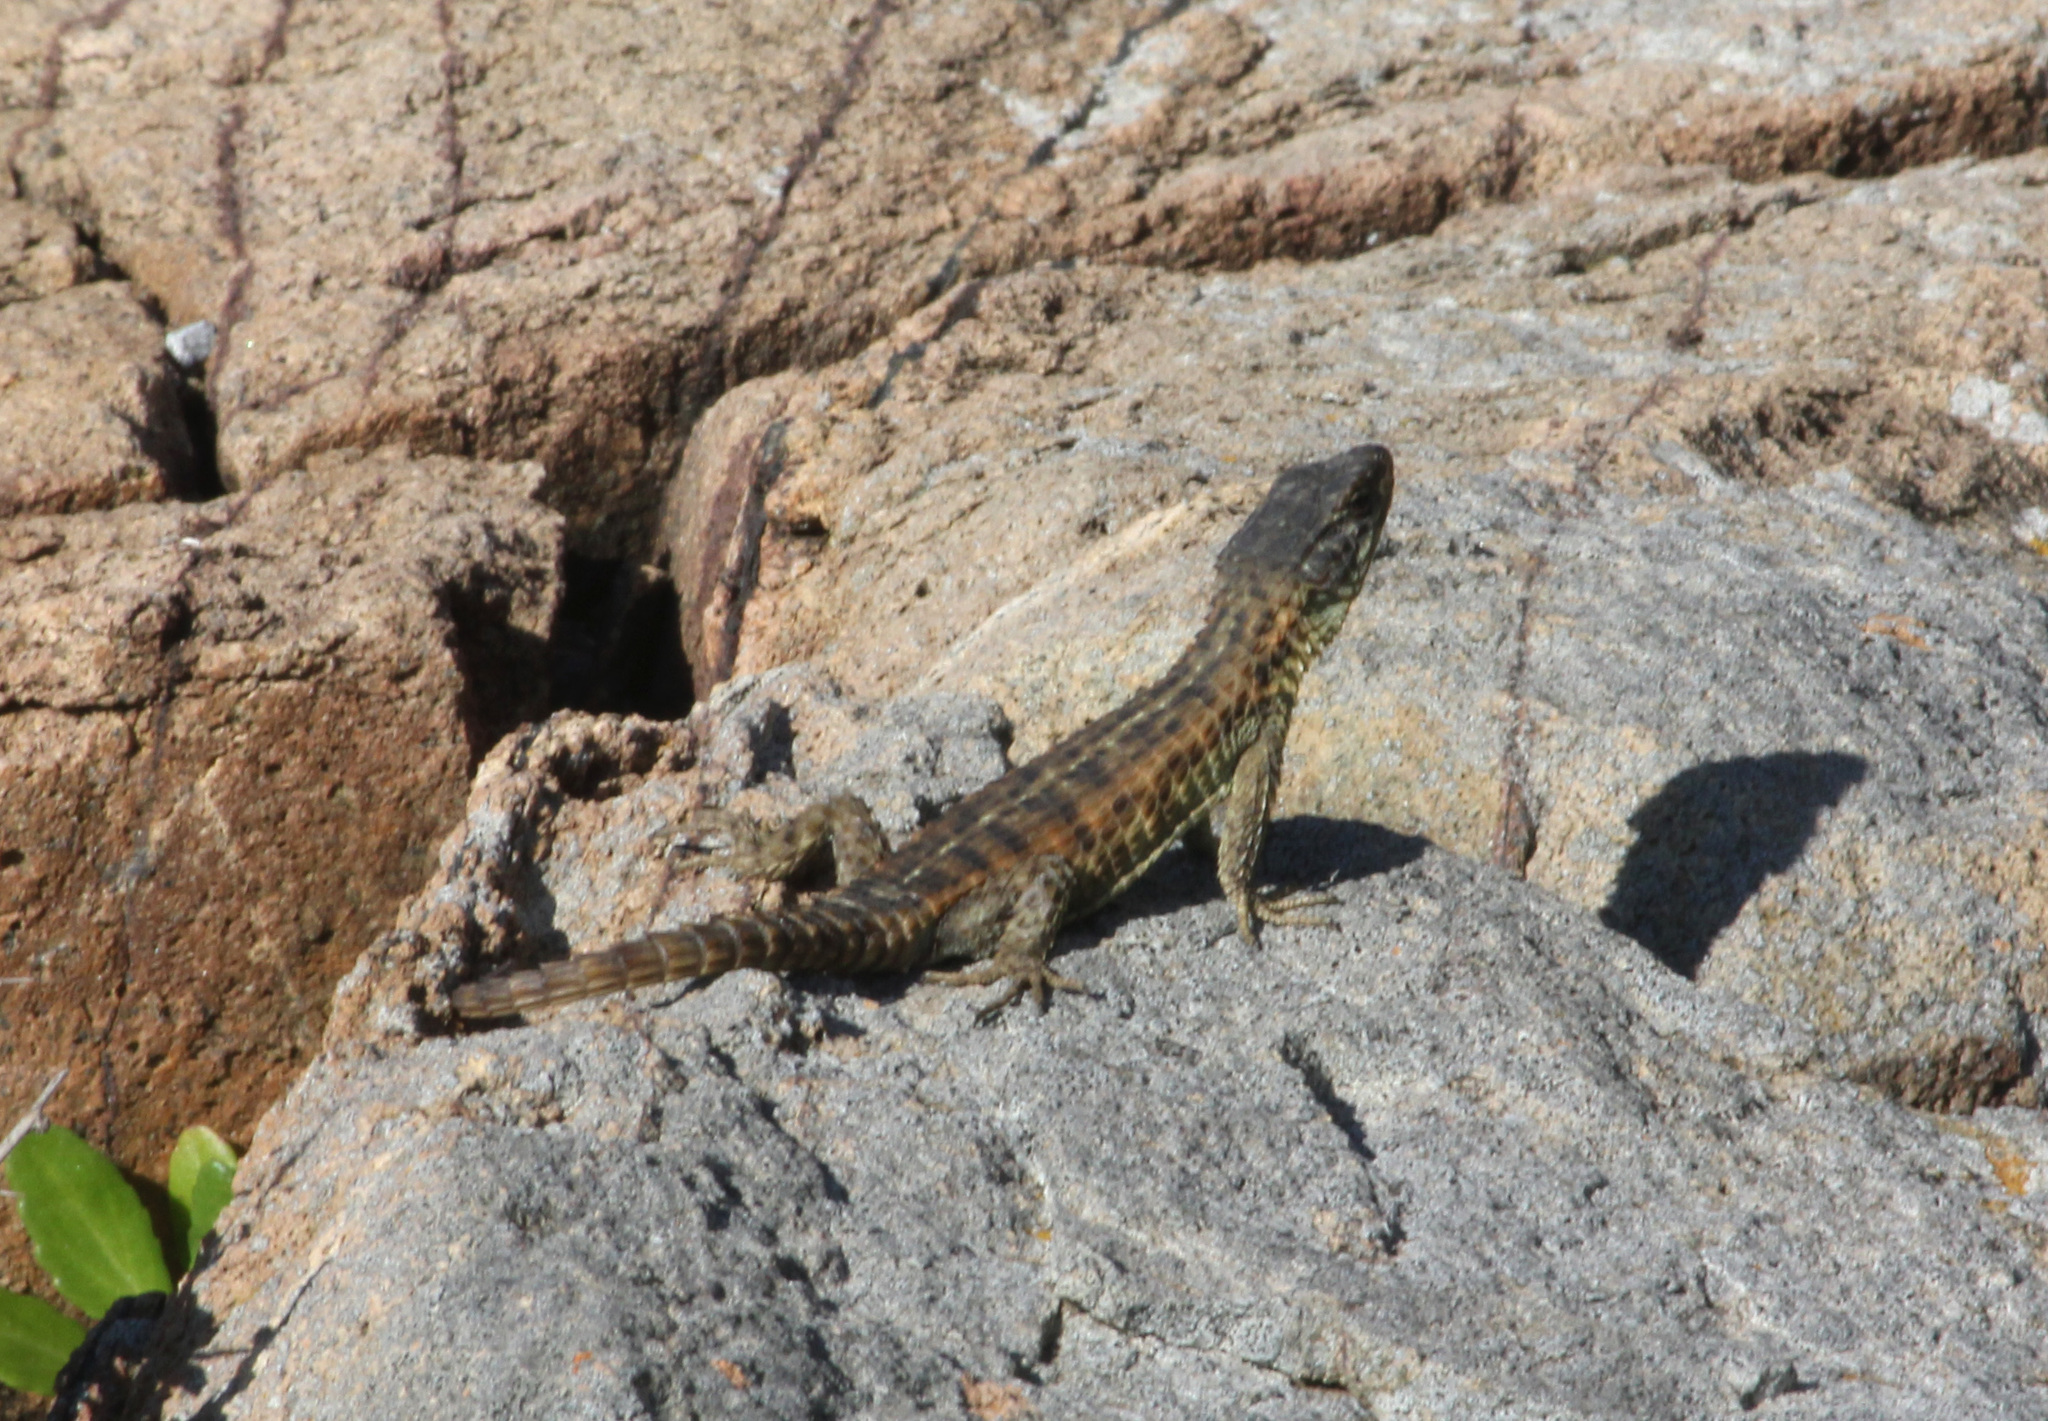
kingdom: Animalia
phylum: Chordata
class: Squamata
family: Cordylidae
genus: Cordylus
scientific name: Cordylus cordylus
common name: Cape girdled lizard
